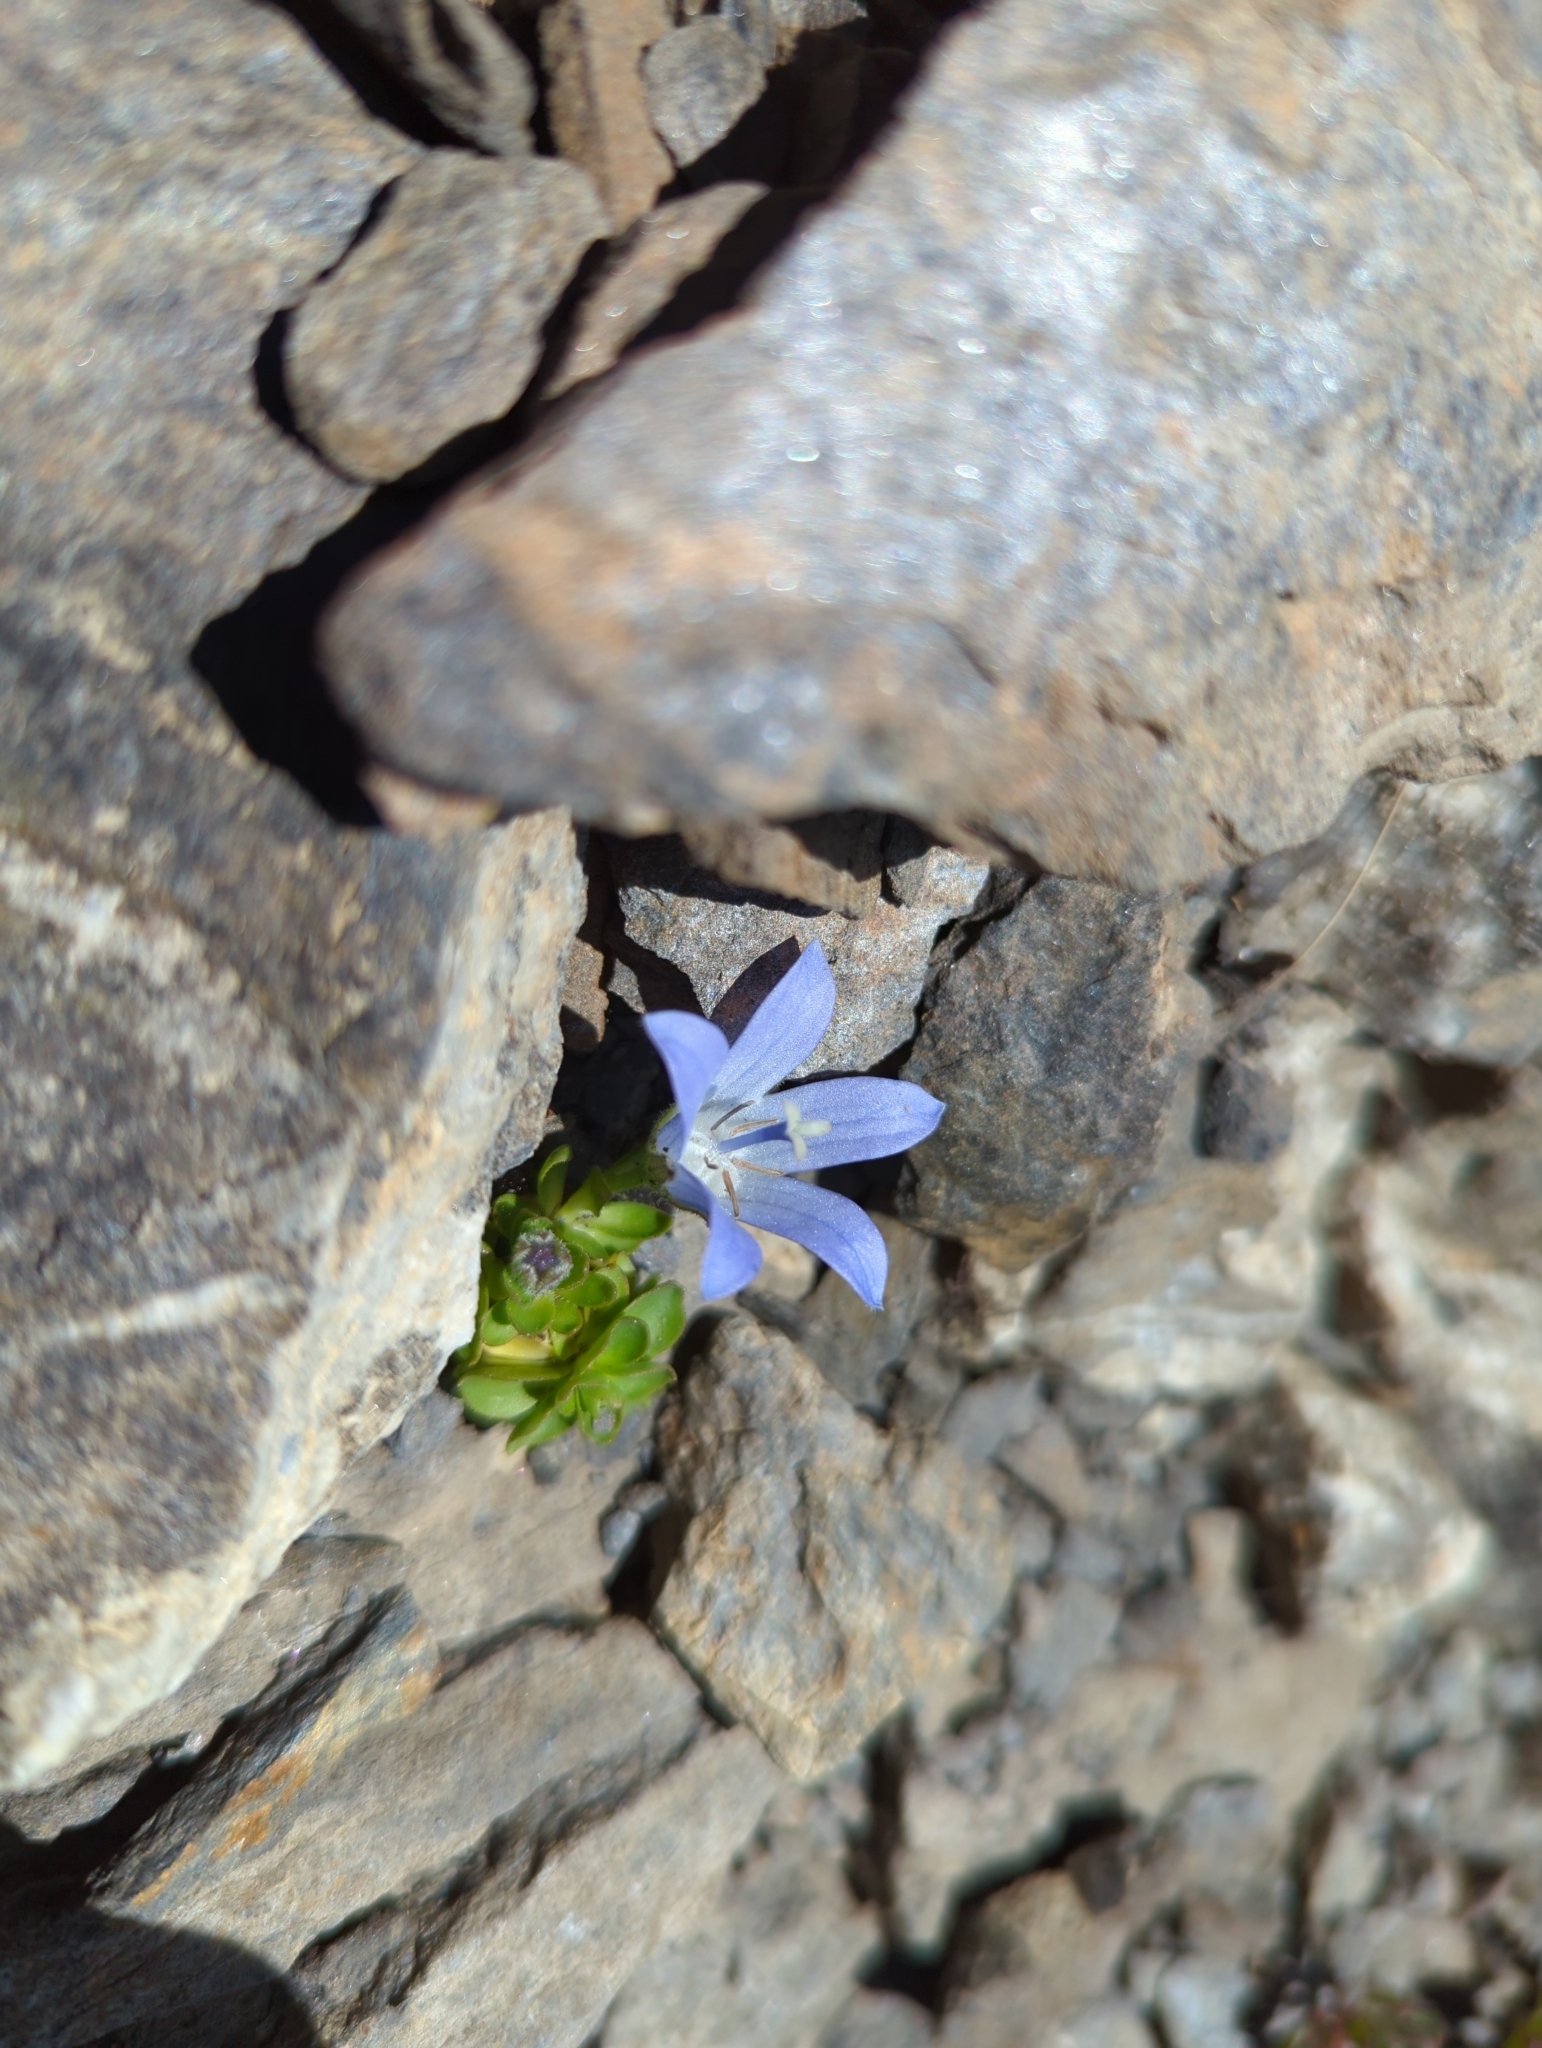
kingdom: Plantae
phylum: Tracheophyta
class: Magnoliopsida
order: Asterales
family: Campanulaceae
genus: Campanula
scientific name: Campanula cenisia
